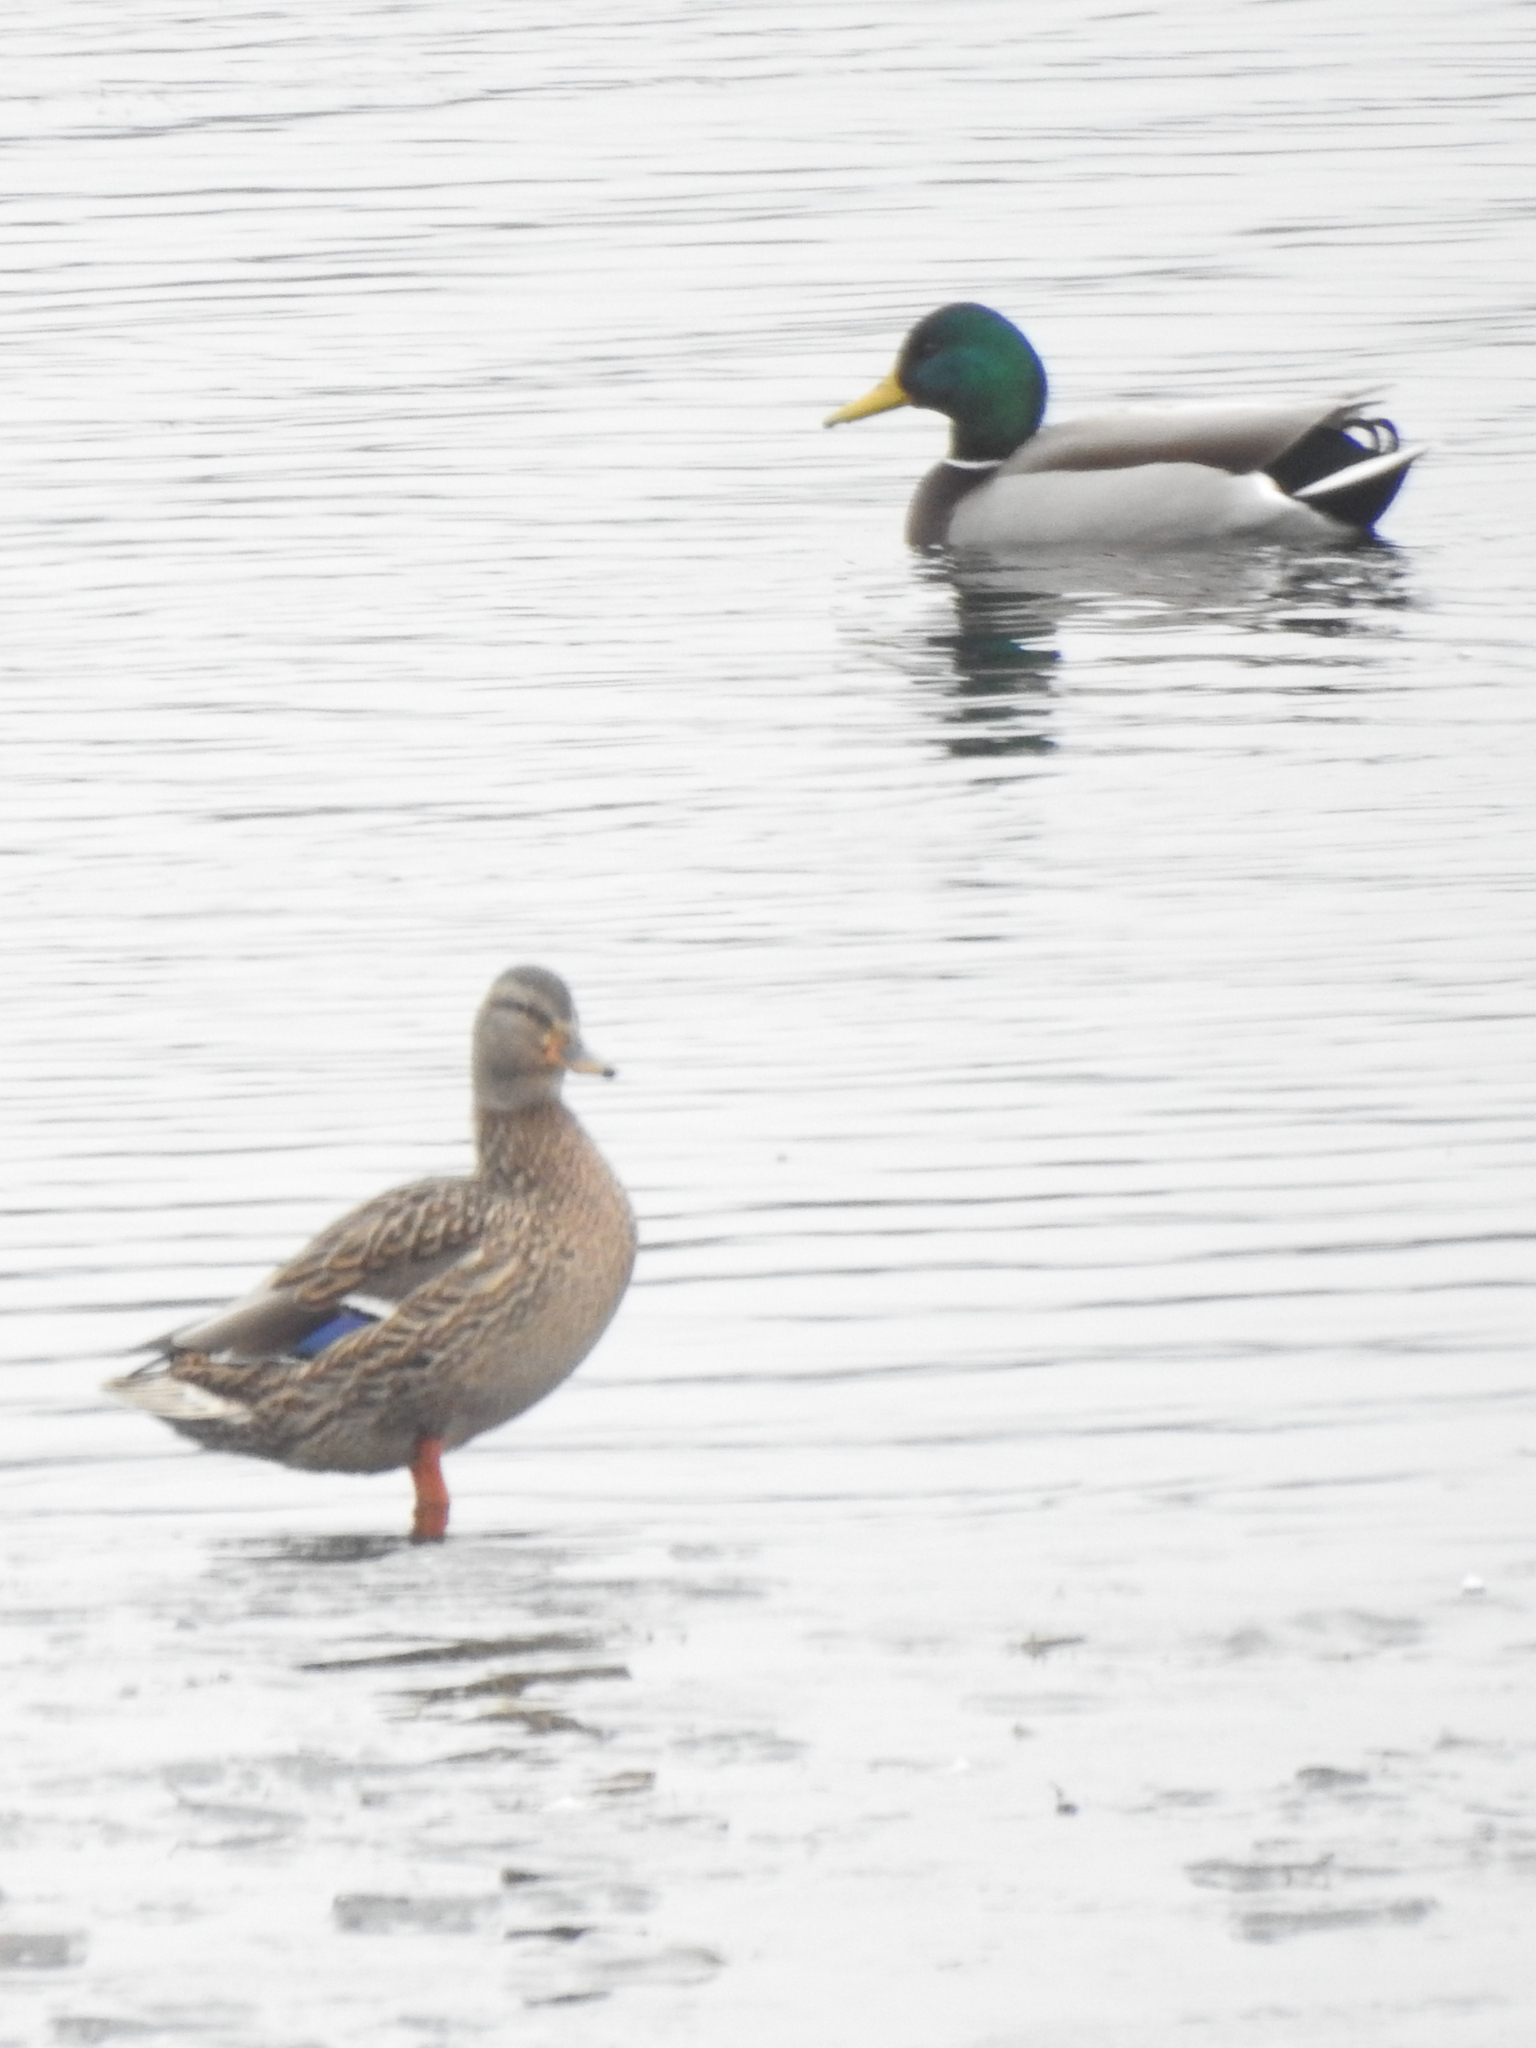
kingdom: Animalia
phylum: Chordata
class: Aves
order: Anseriformes
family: Anatidae
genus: Anas
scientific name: Anas platyrhynchos
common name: Mallard
